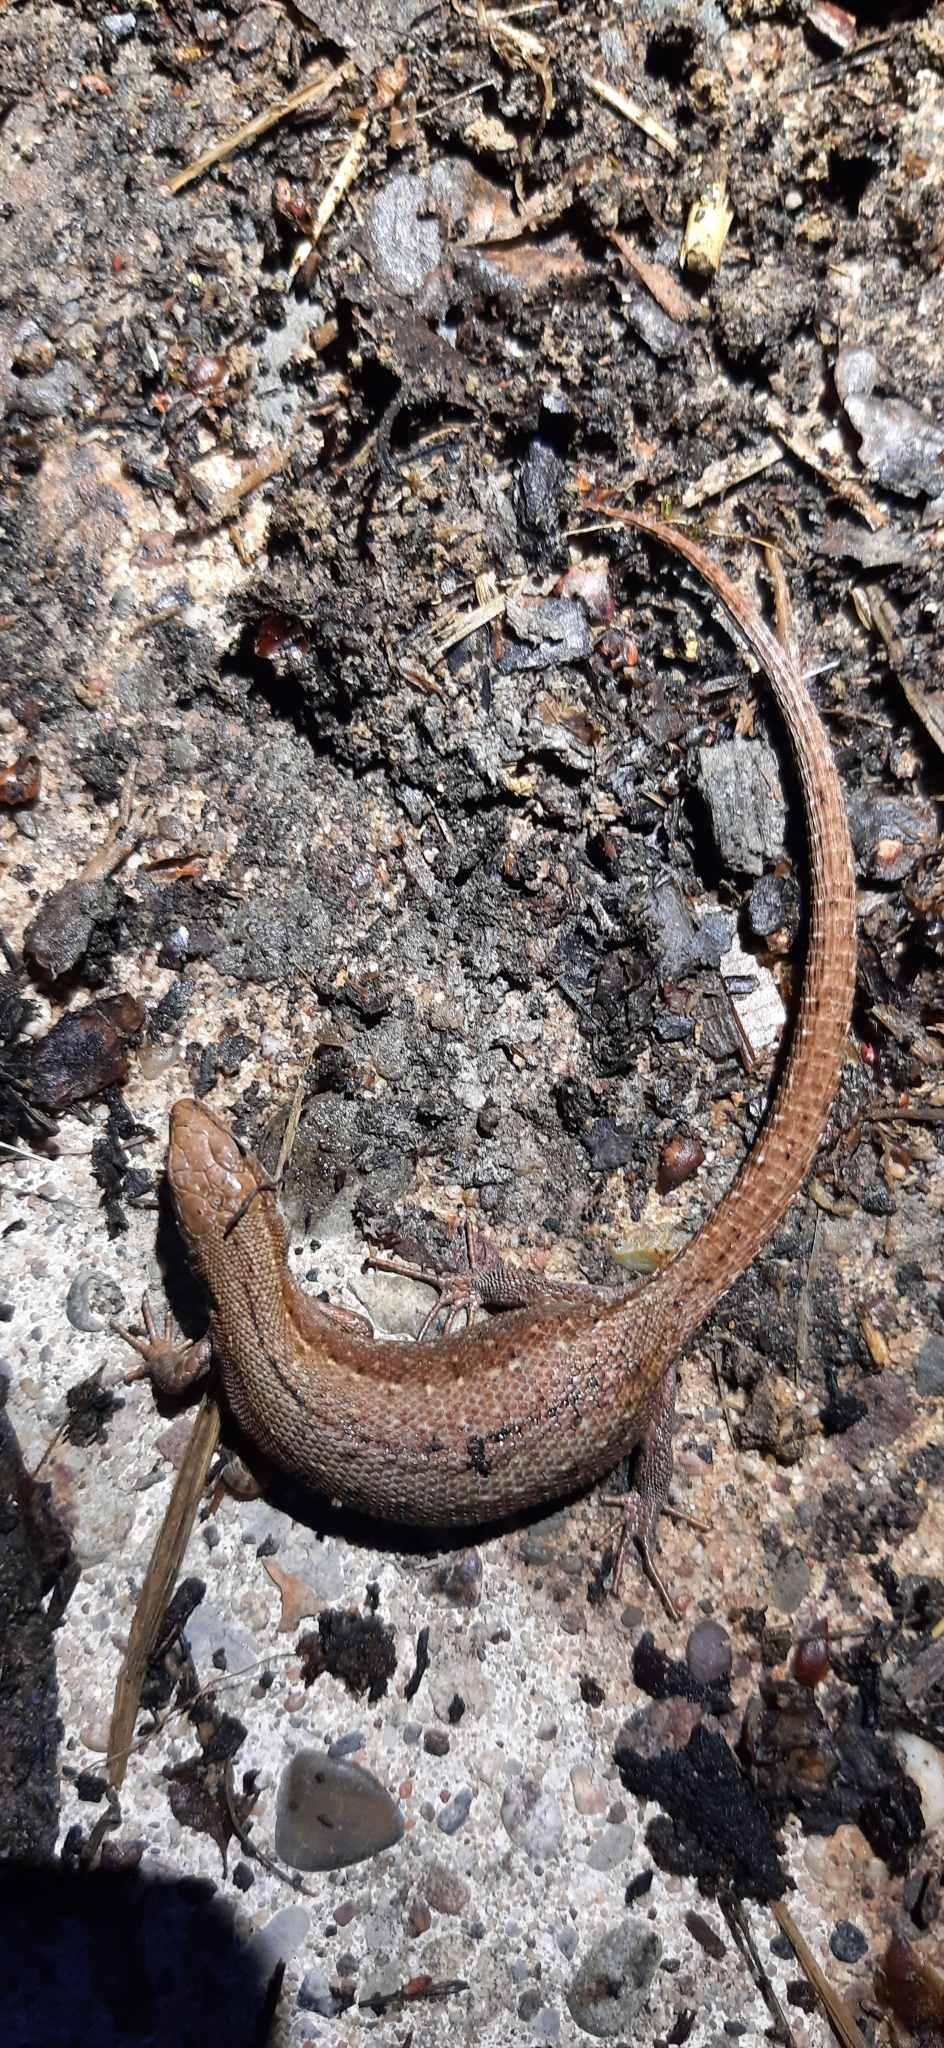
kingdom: Animalia
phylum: Chordata
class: Squamata
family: Lacertidae
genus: Zootoca
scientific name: Zootoca vivipara
